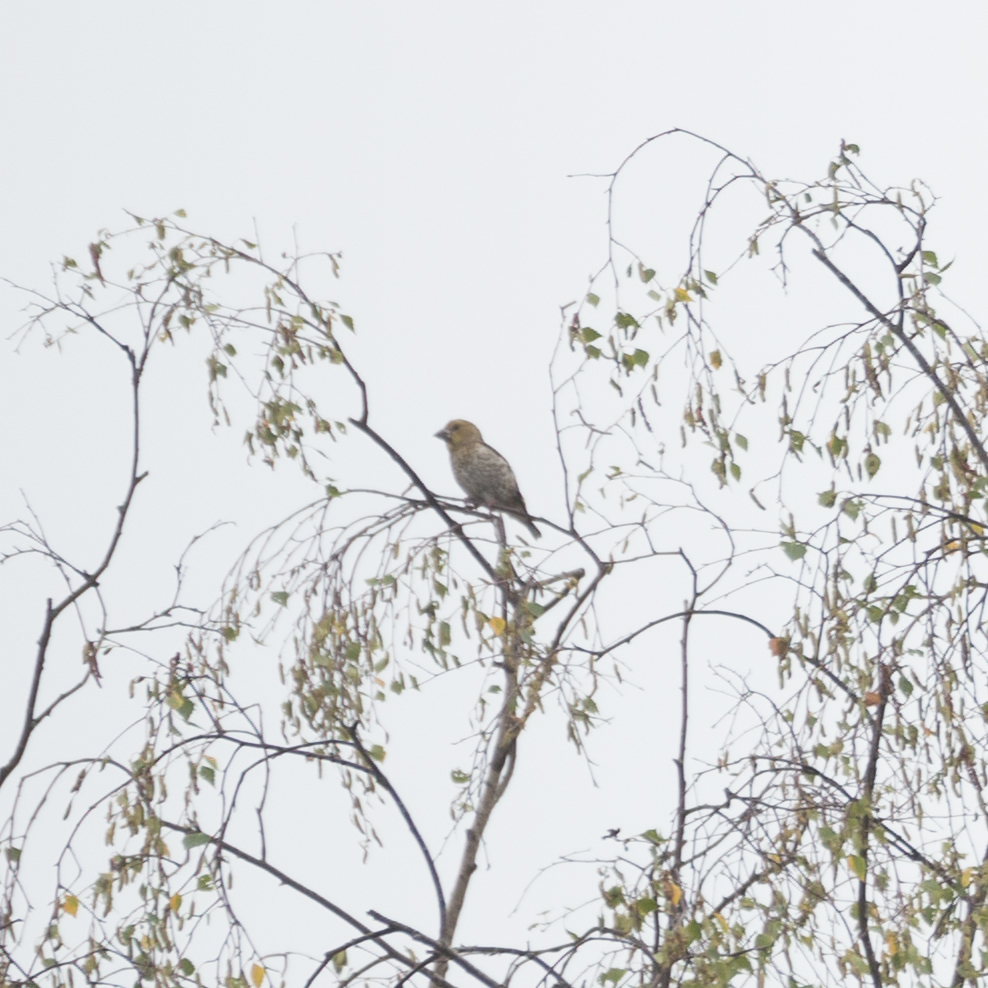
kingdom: Animalia
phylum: Chordata
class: Aves
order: Passeriformes
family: Fringillidae
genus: Coccothraustes
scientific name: Coccothraustes coccothraustes
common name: Hawfinch
